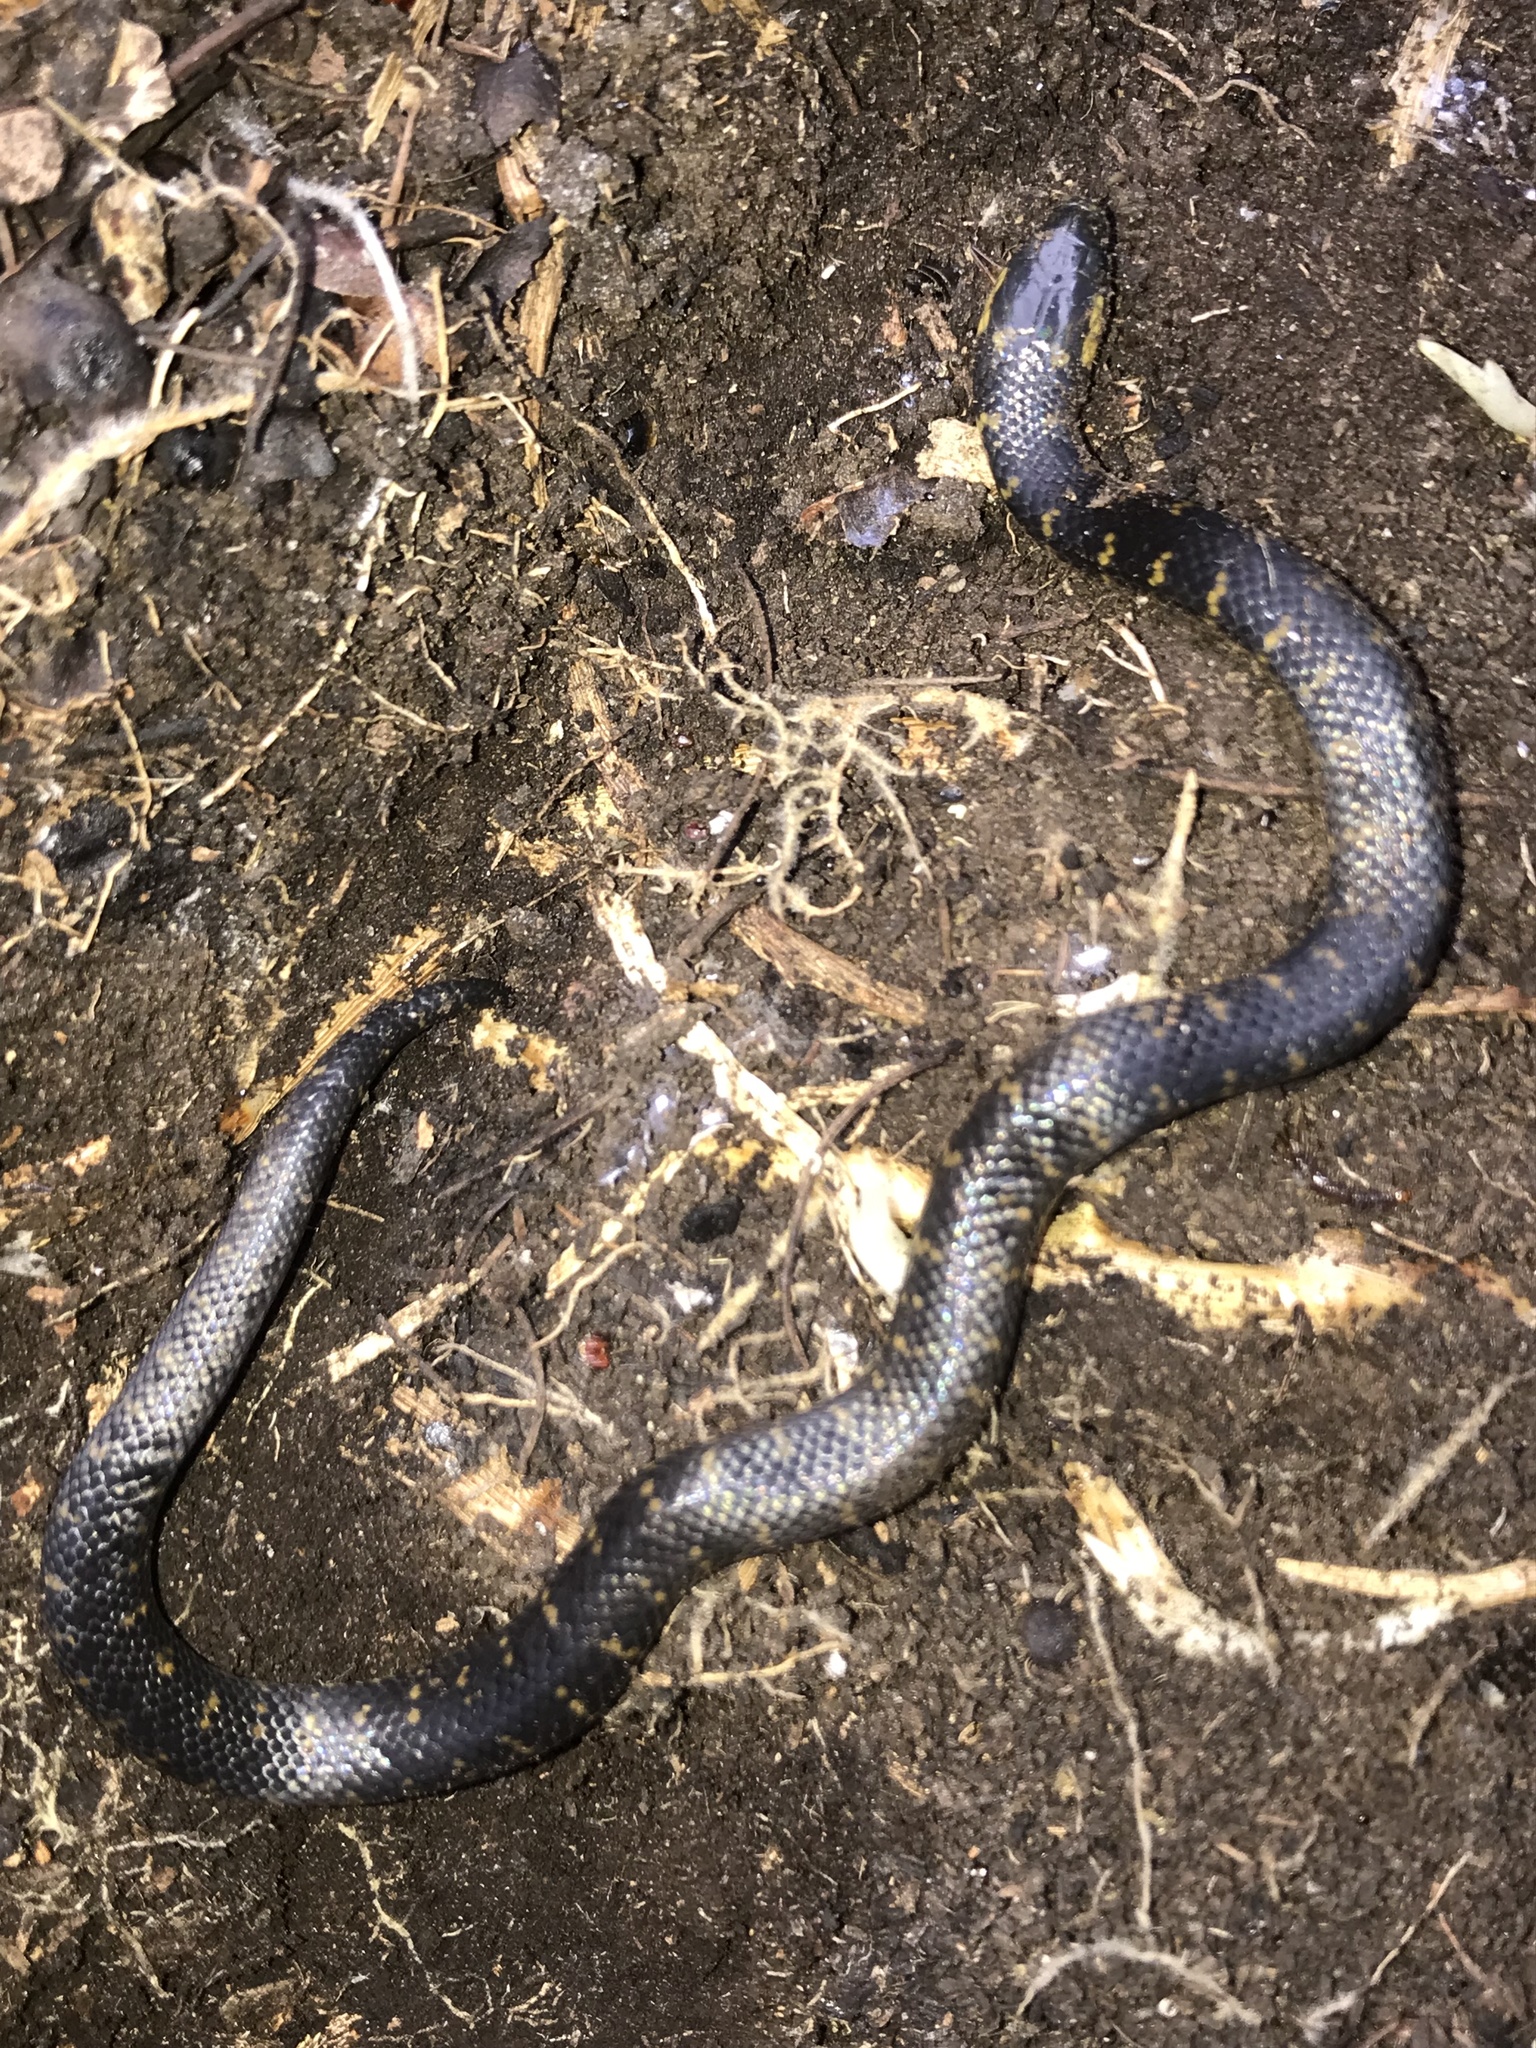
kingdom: Animalia
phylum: Chordata
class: Squamata
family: Colubridae
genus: Atractus
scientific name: Atractus crassicaudatus
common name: Thickhead ground snake
